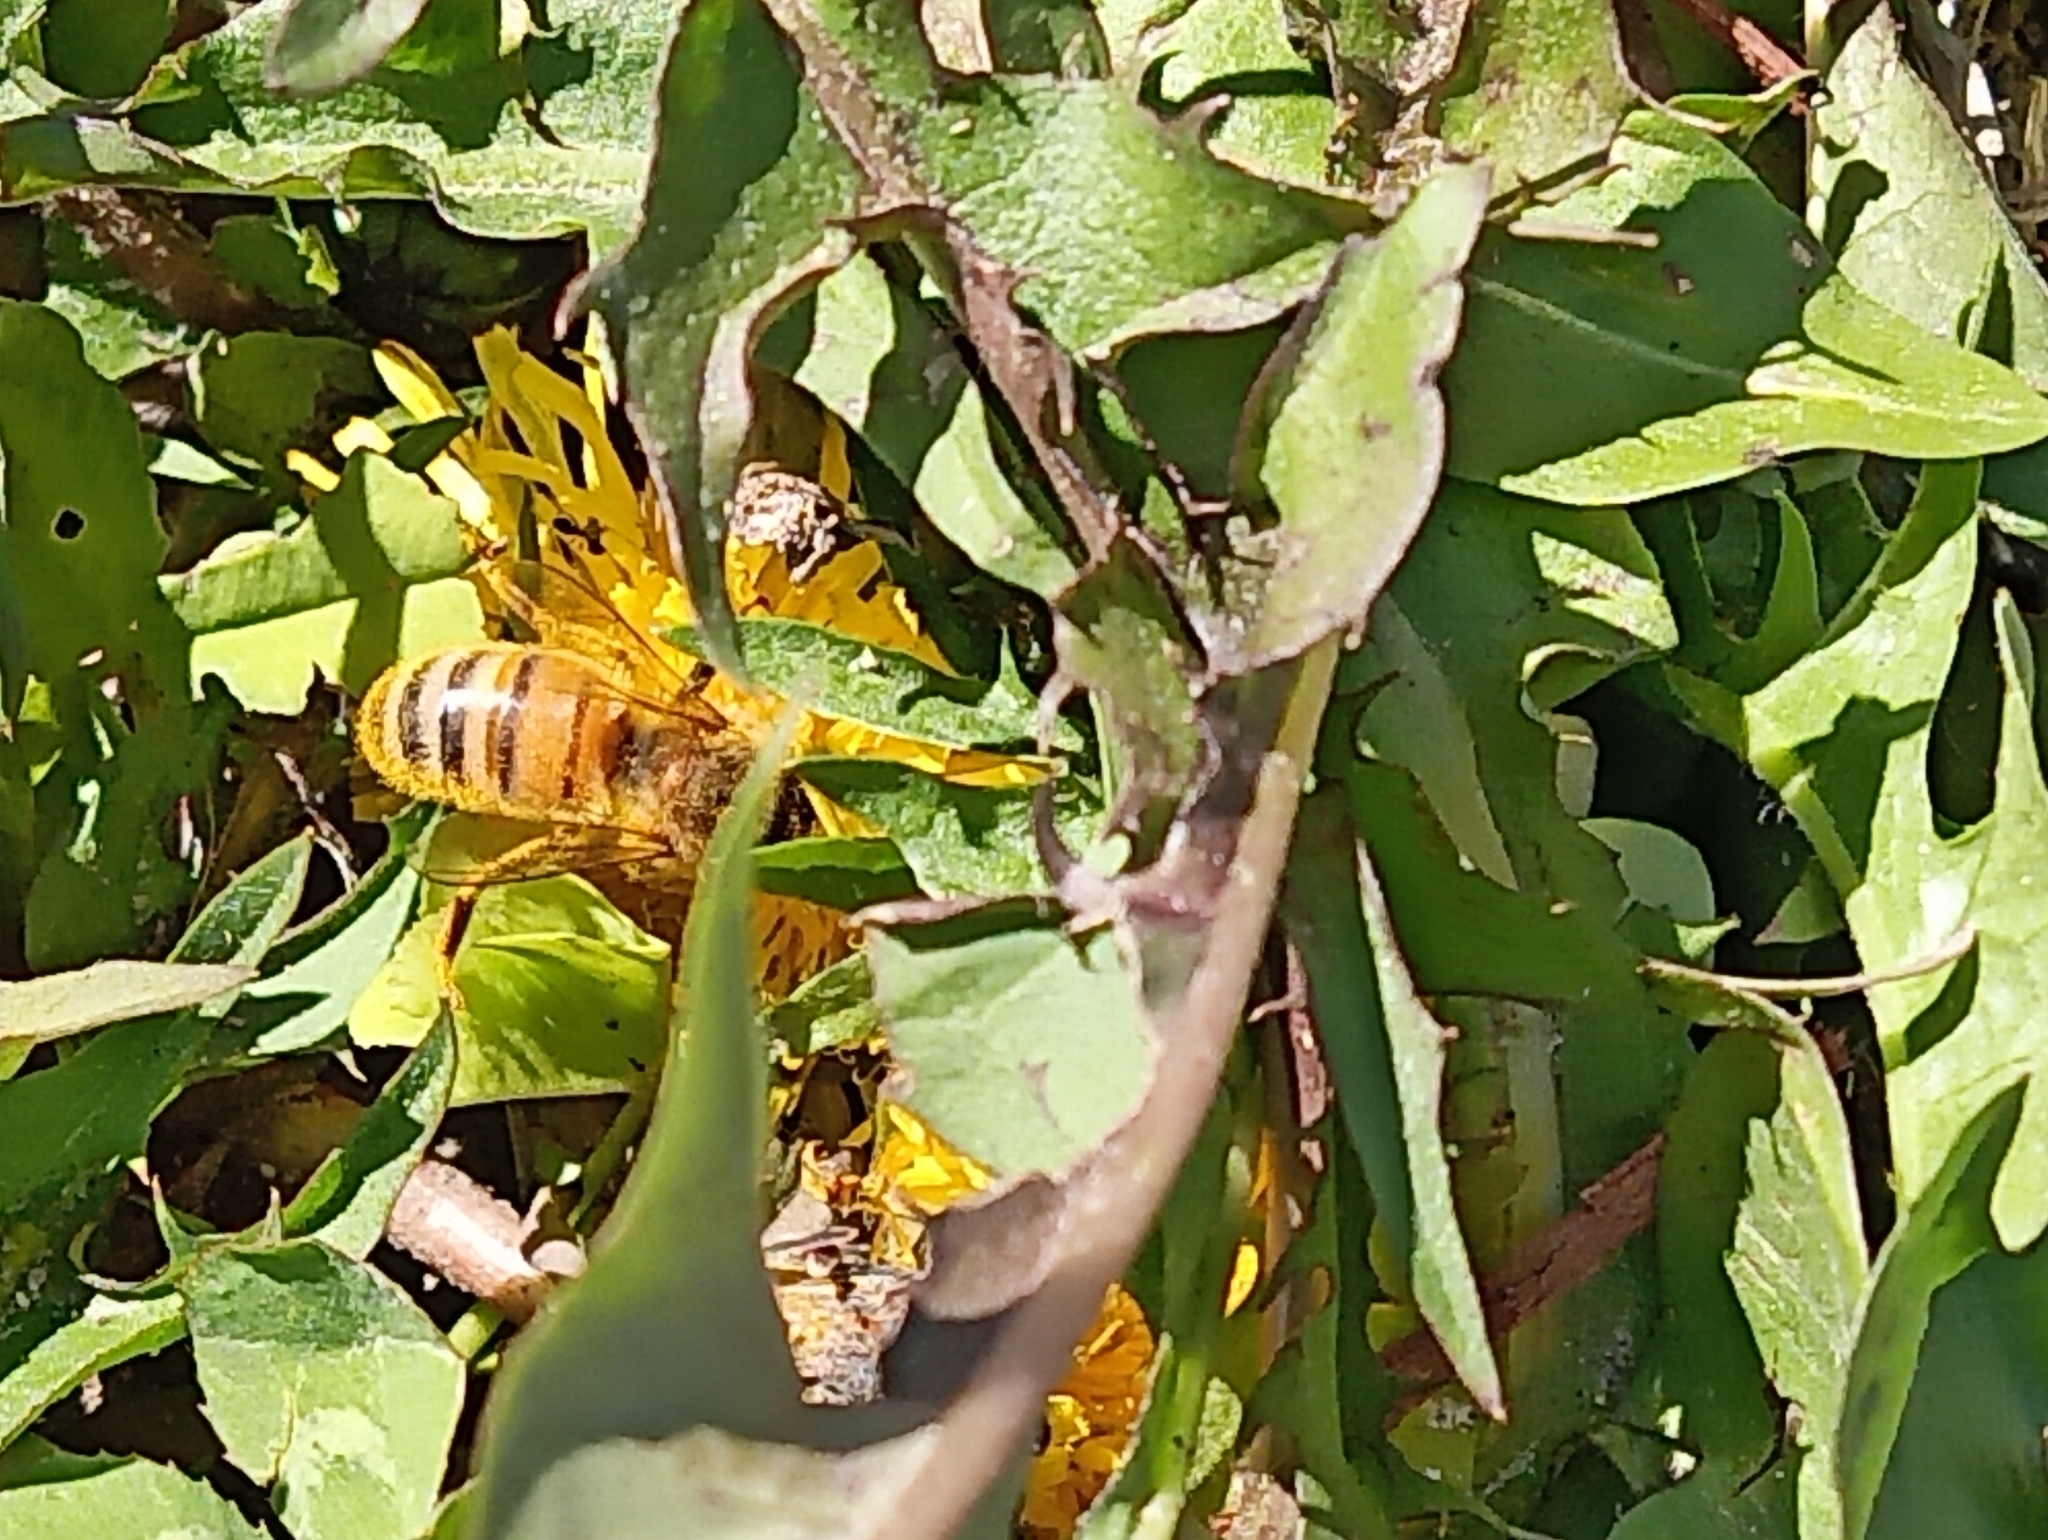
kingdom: Animalia
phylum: Arthropoda
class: Insecta
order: Hymenoptera
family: Apidae
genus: Apis
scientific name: Apis mellifera
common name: Honey bee
